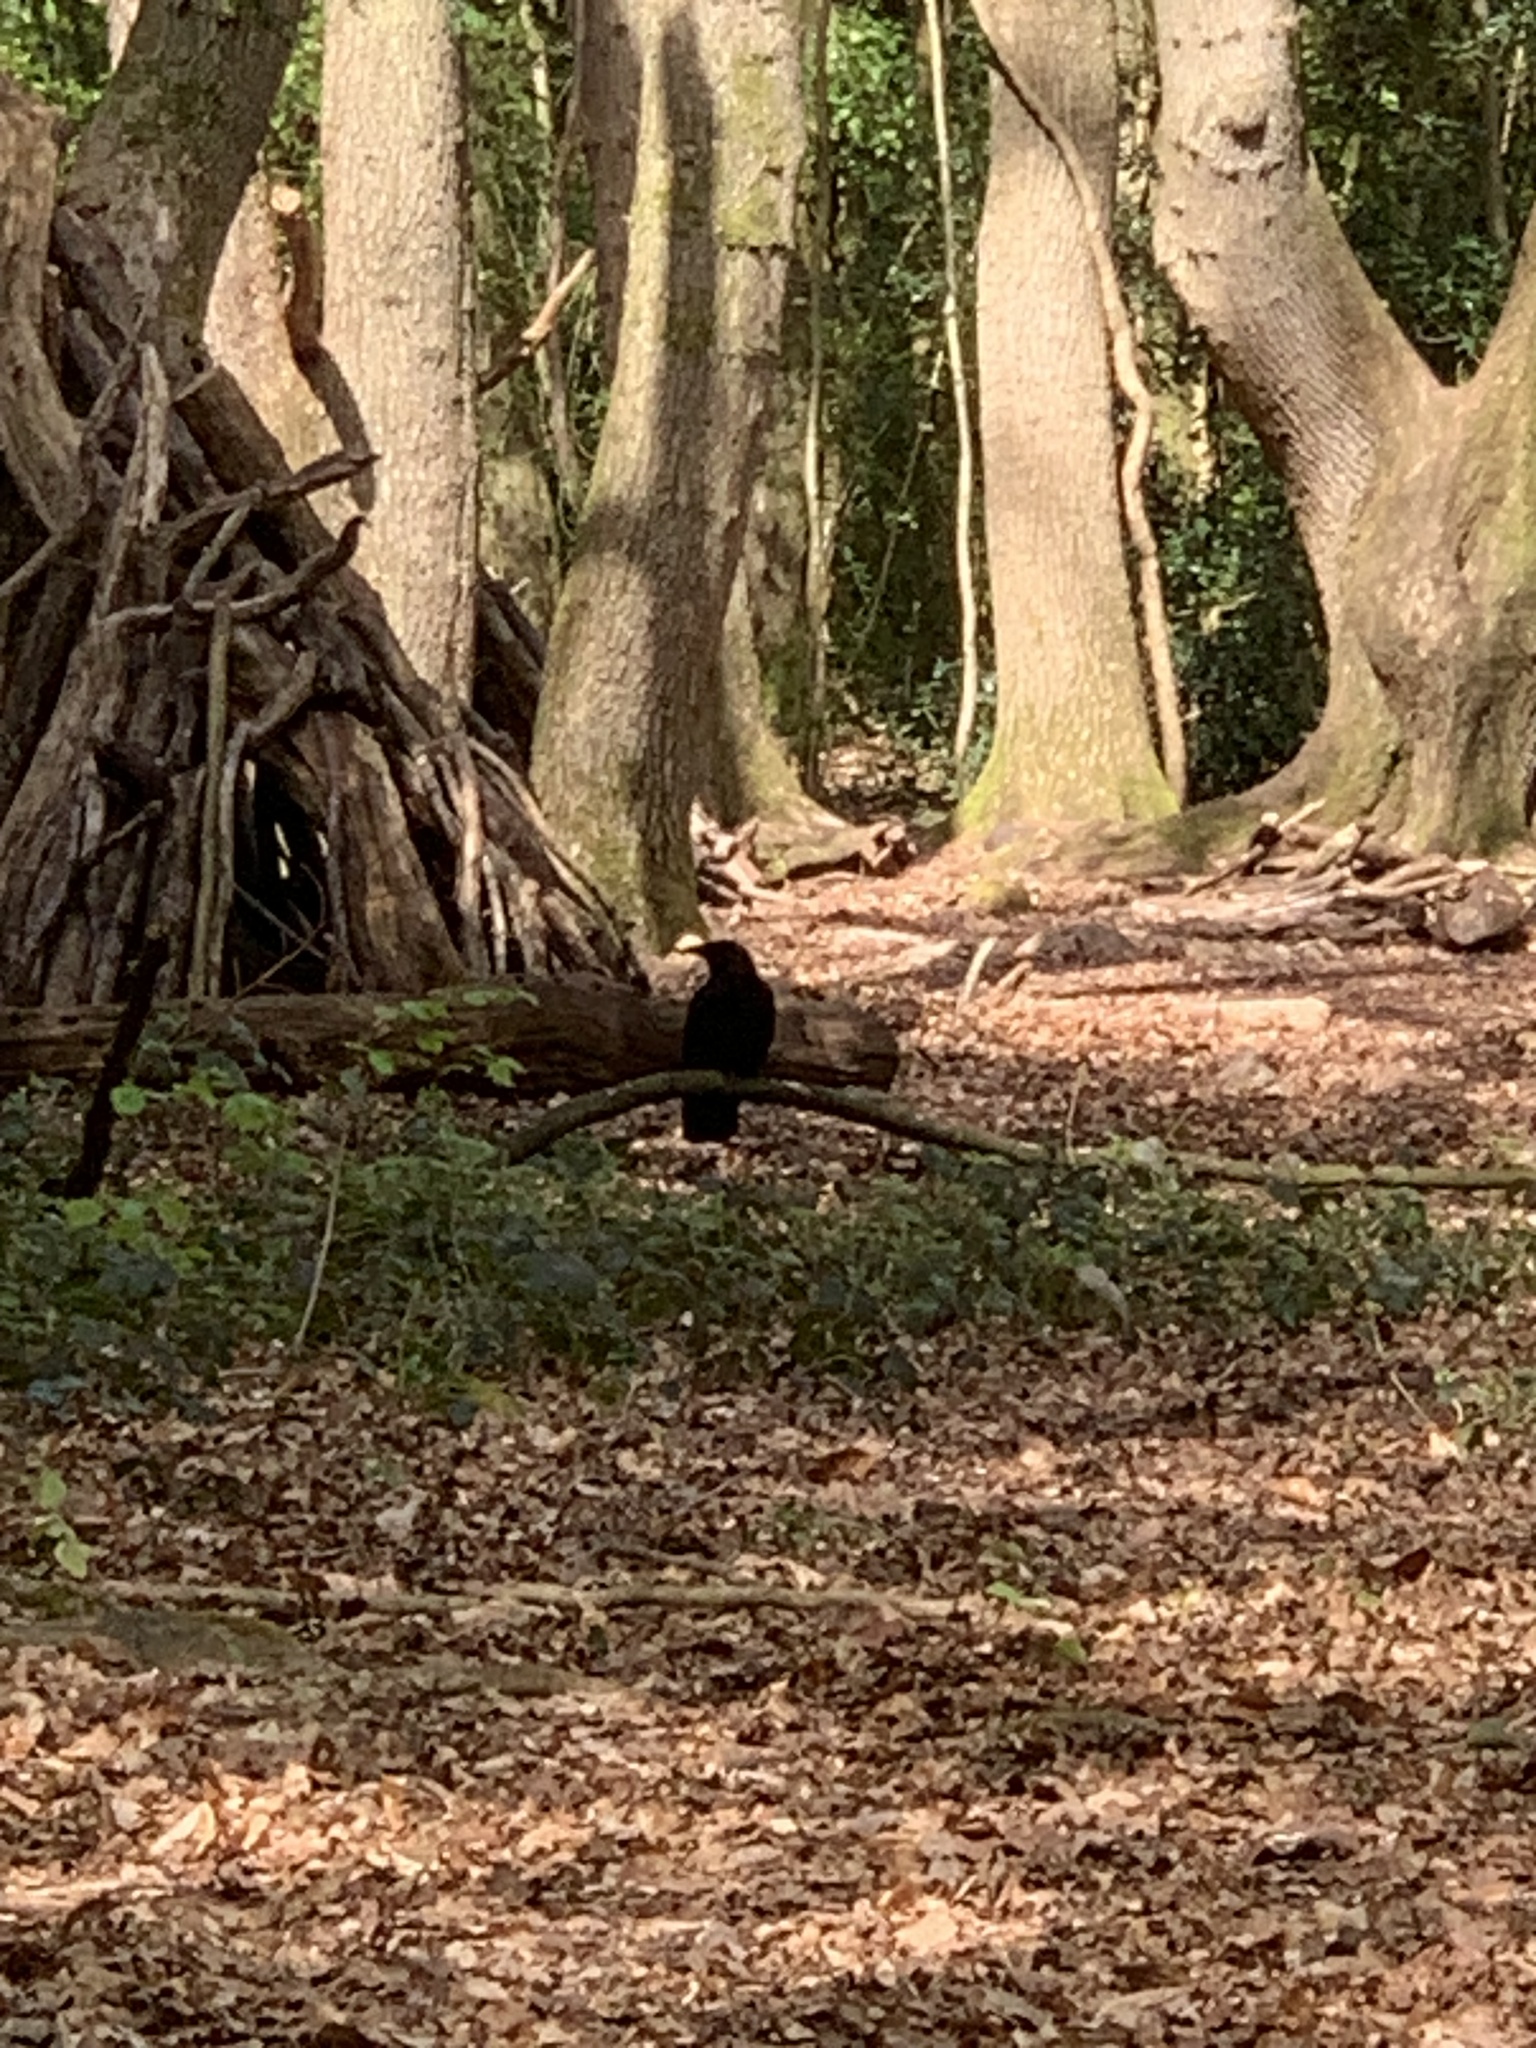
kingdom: Animalia
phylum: Chordata
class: Aves
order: Passeriformes
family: Corvidae
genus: Corvus
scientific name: Corvus corone
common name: Carrion crow
